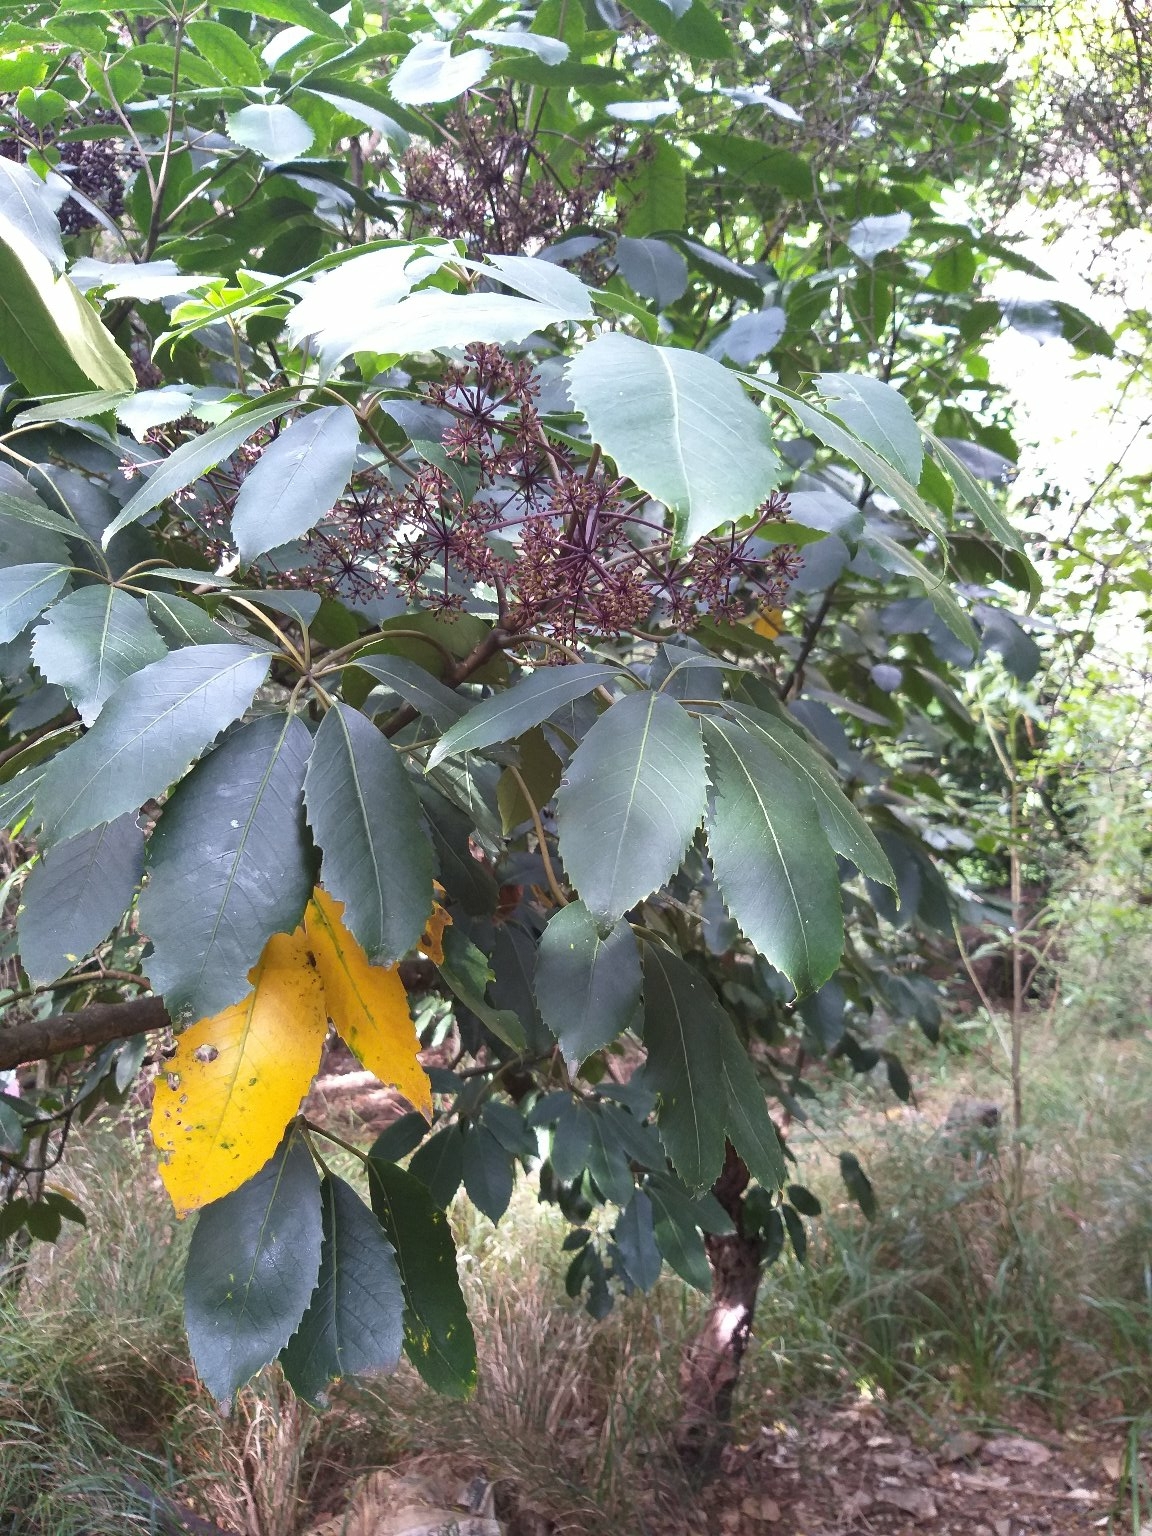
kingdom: Plantae
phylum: Tracheophyta
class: Magnoliopsida
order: Apiales
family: Araliaceae
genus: Neopanax
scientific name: Neopanax arboreus
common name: Five-fingers
